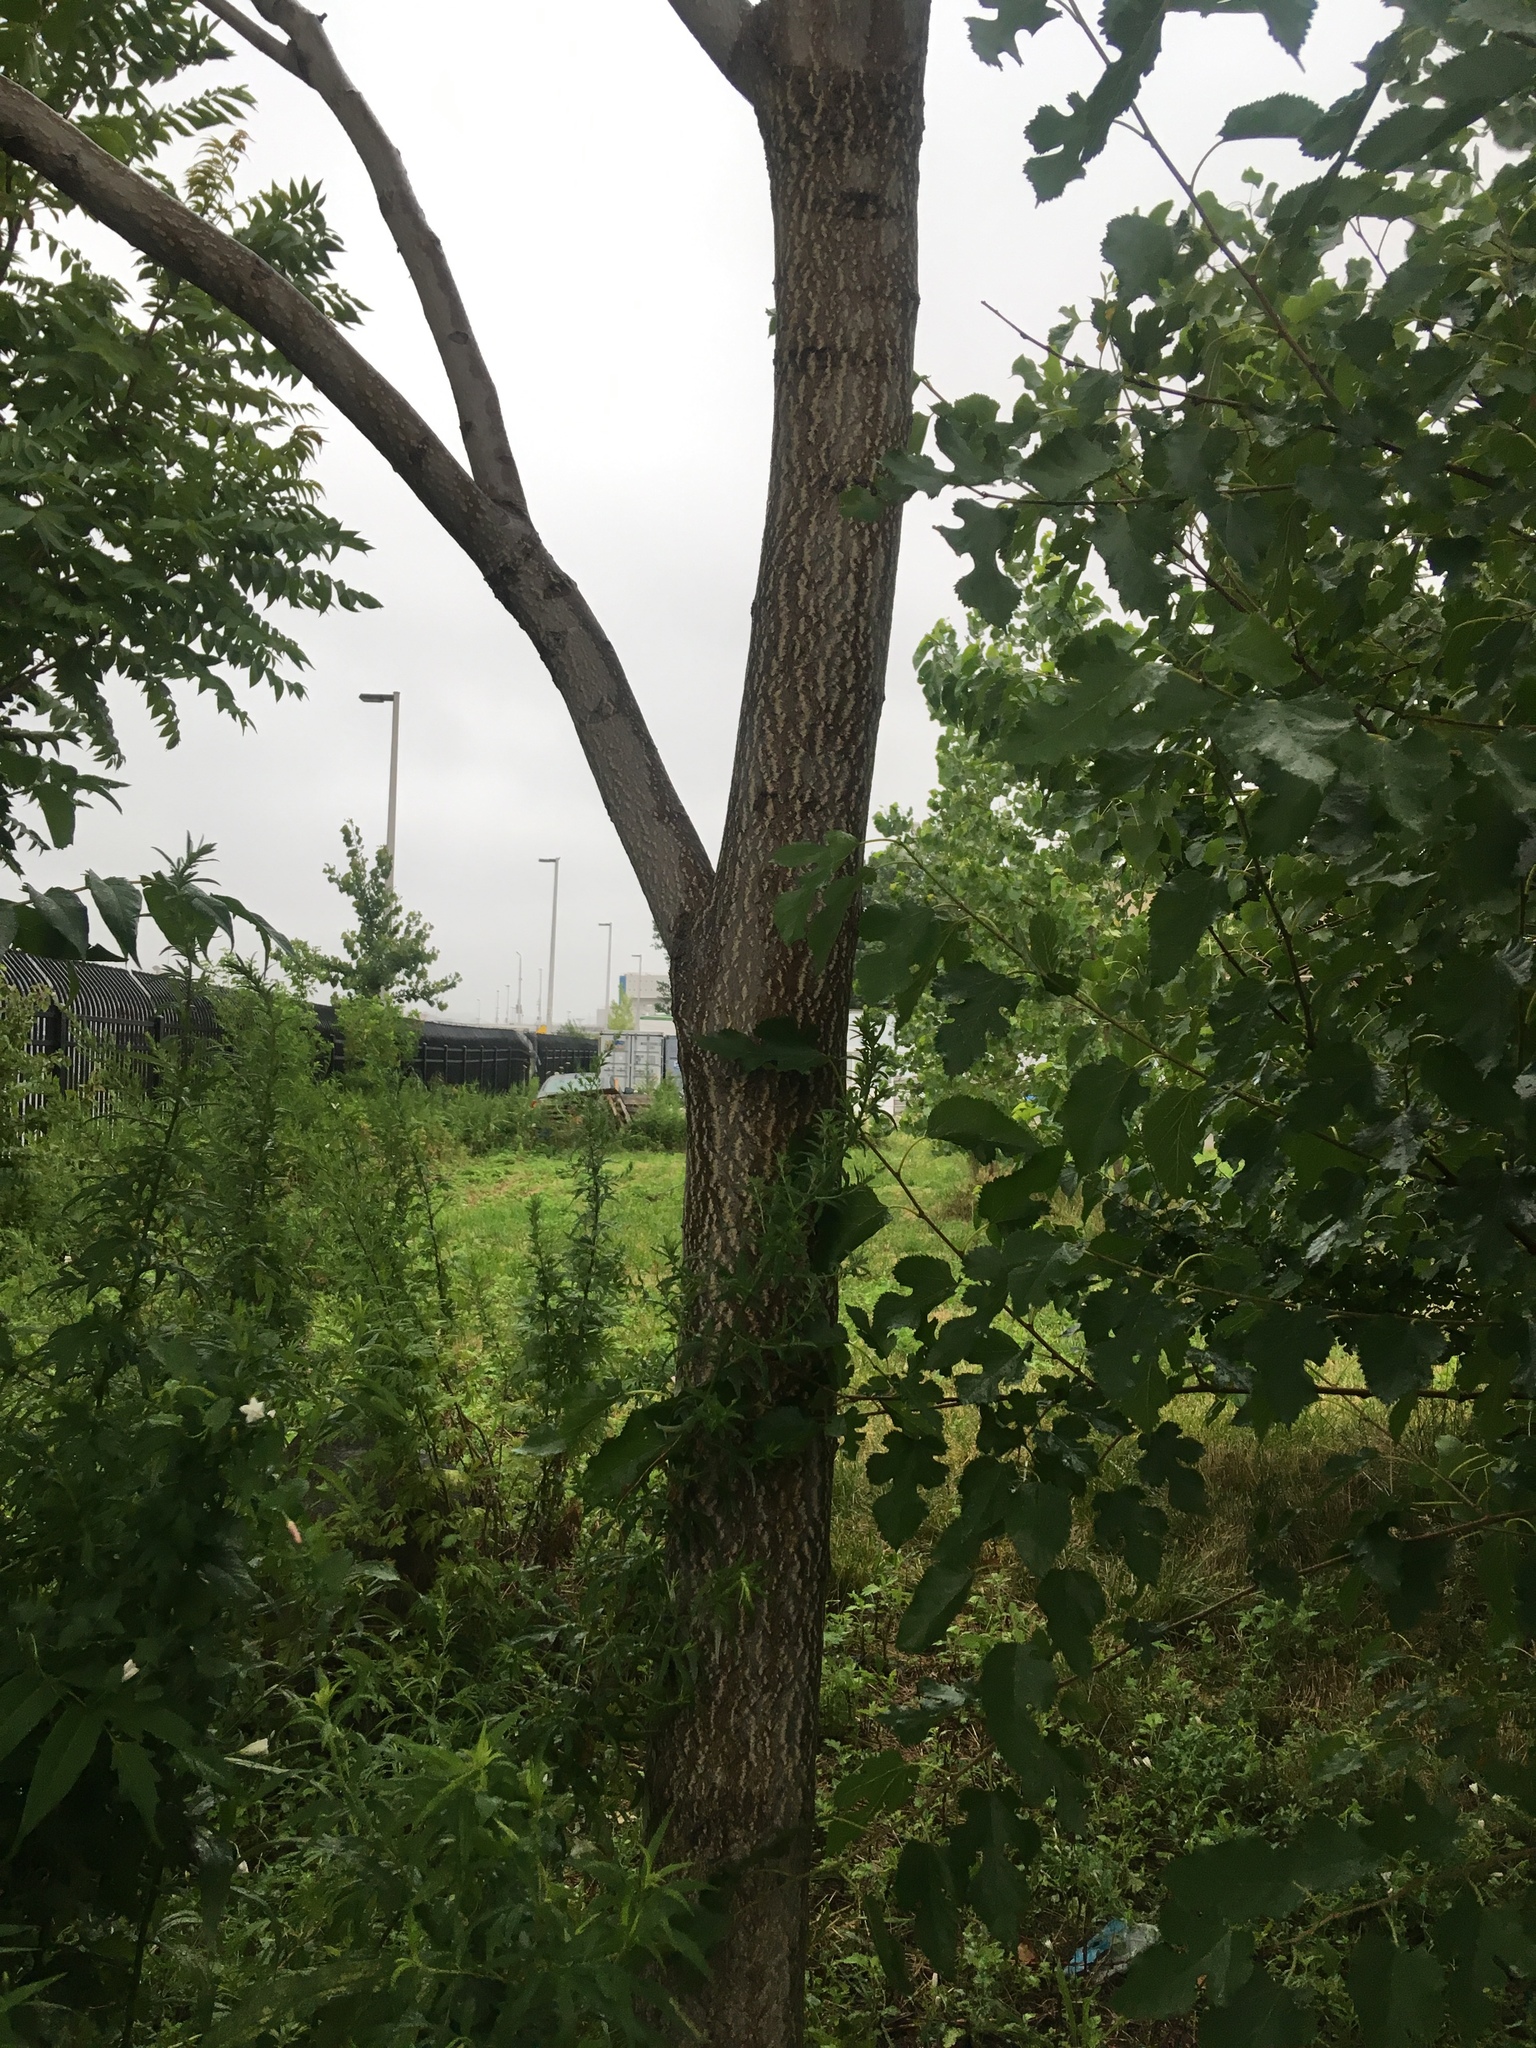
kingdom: Plantae
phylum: Tracheophyta
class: Magnoliopsida
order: Sapindales
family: Simaroubaceae
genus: Ailanthus
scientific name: Ailanthus altissima
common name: Tree-of-heaven
